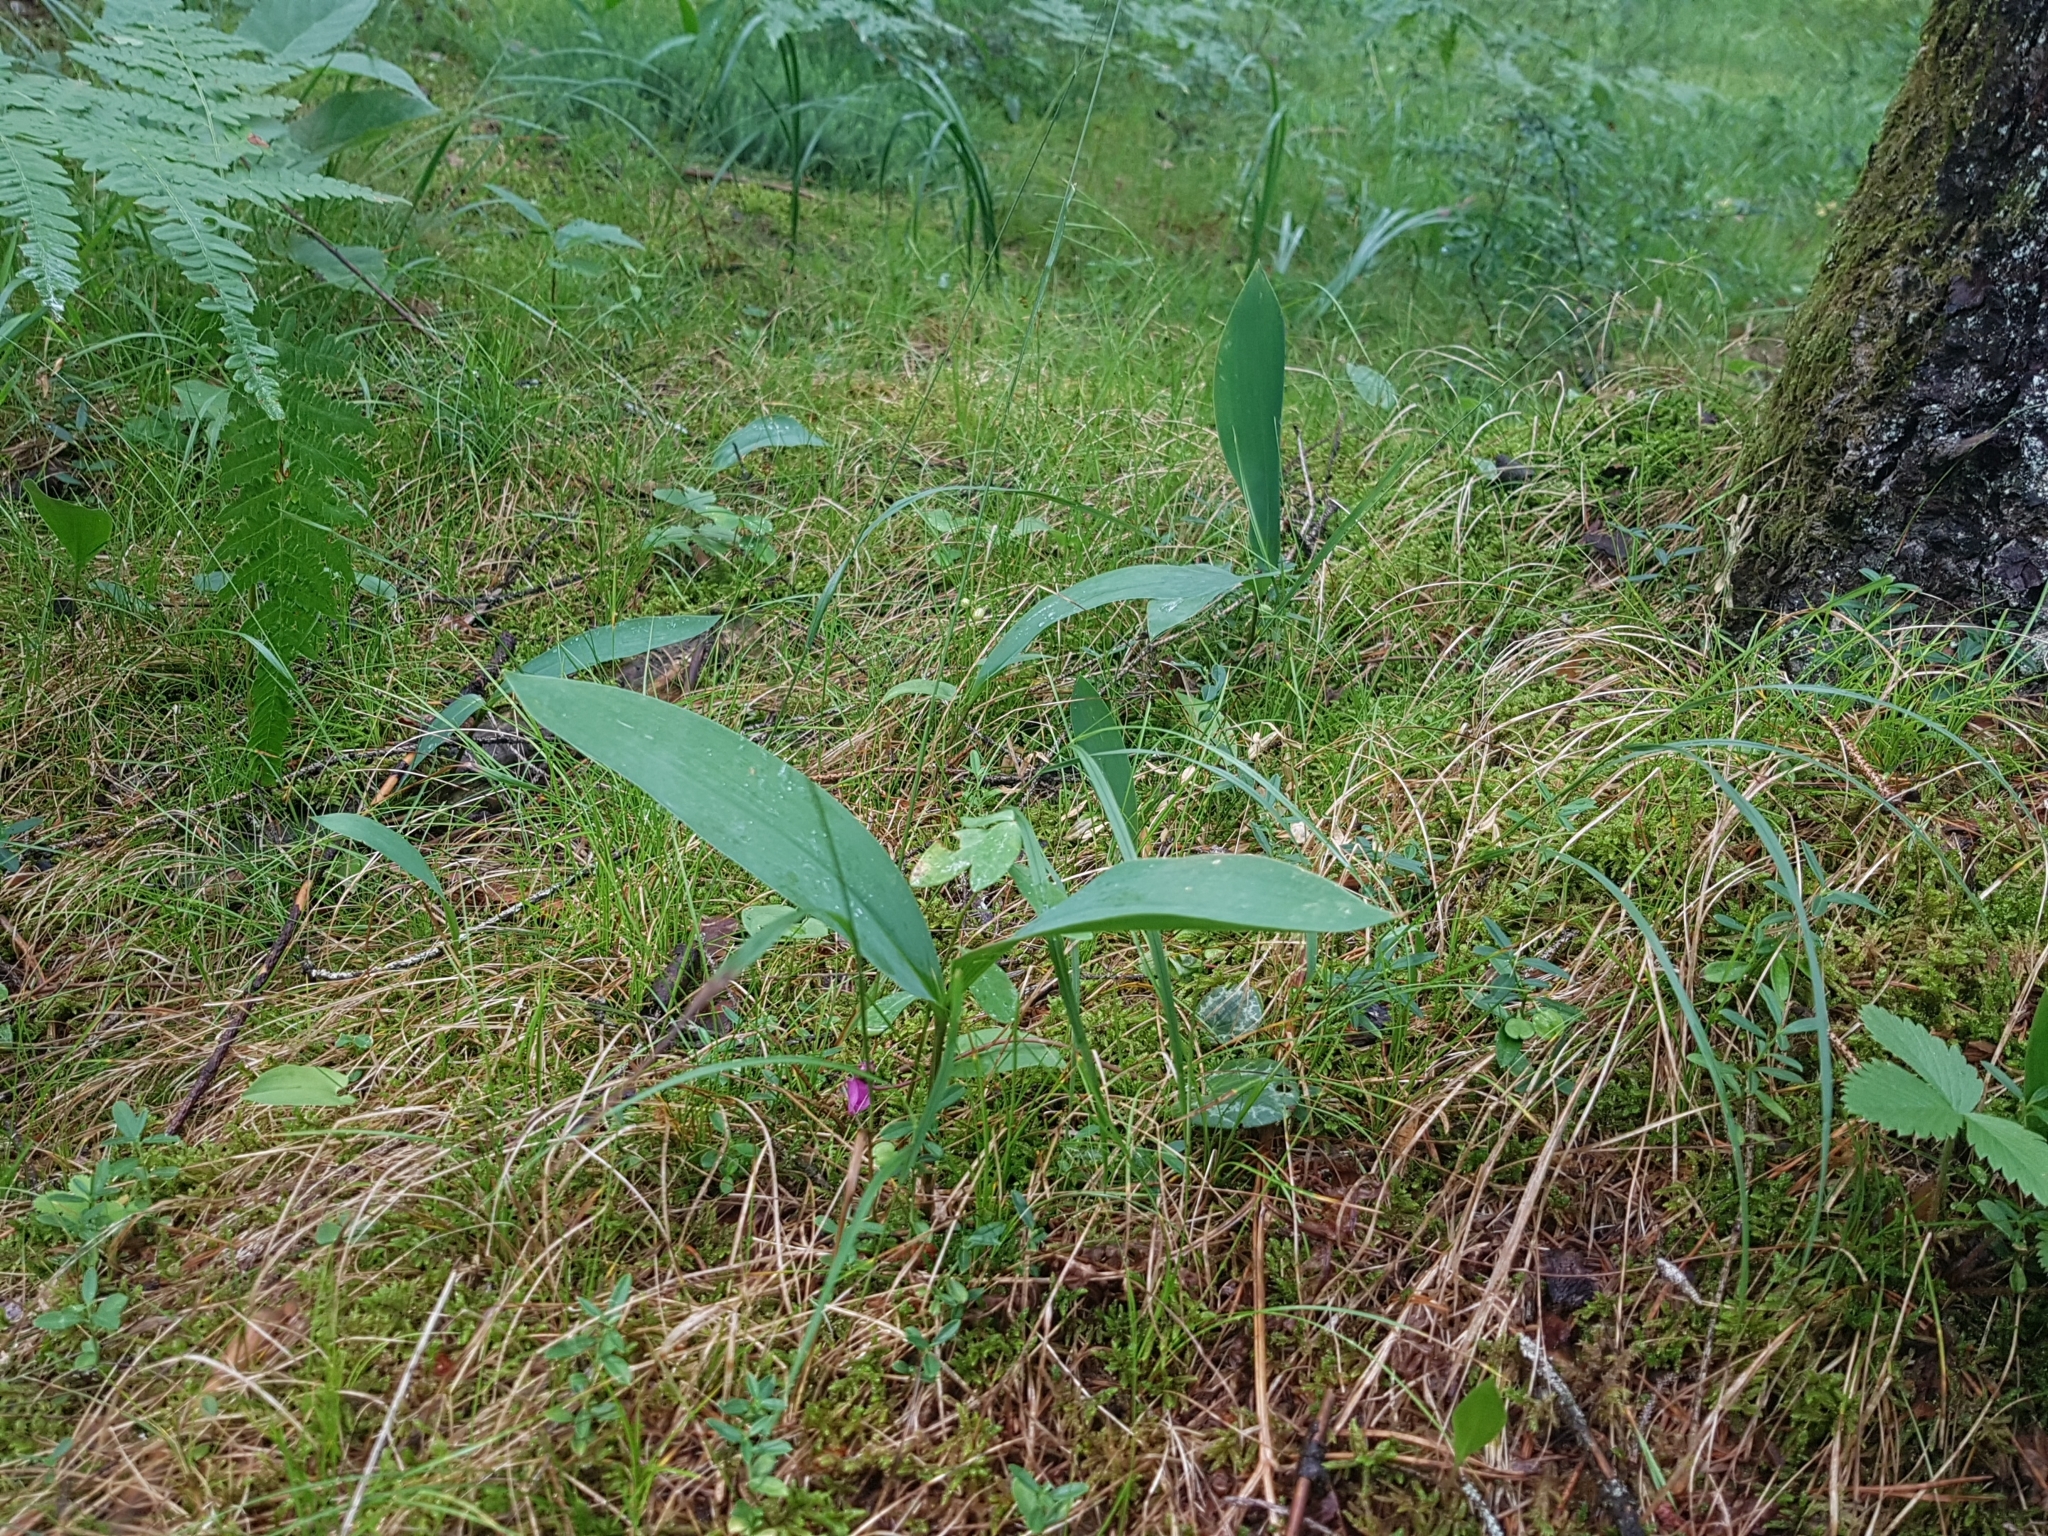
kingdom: Plantae
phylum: Tracheophyta
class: Liliopsida
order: Asparagales
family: Asparagaceae
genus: Convallaria
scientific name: Convallaria majalis
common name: Lily-of-the-valley
